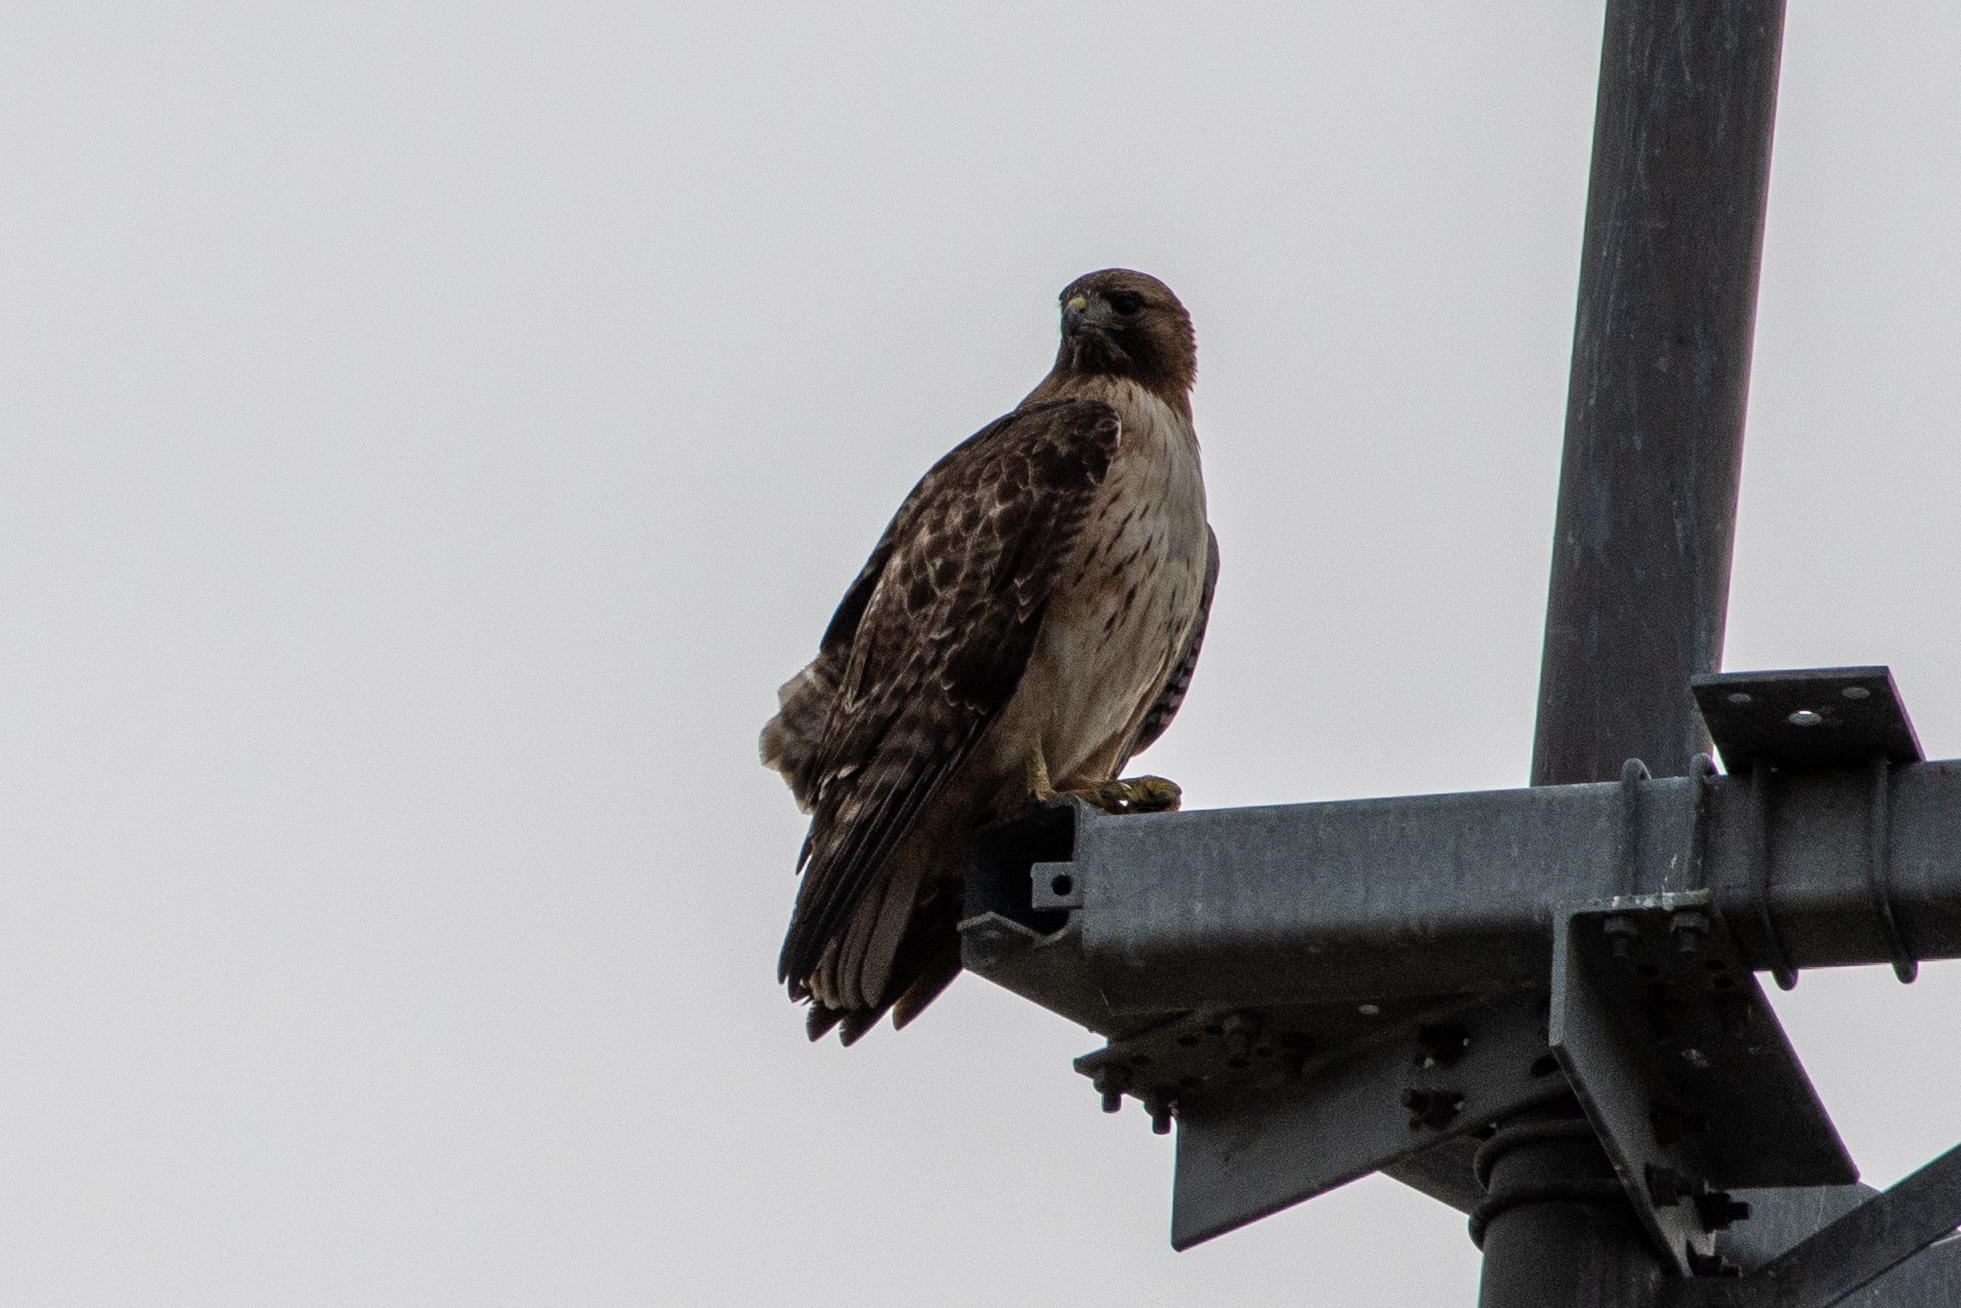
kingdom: Animalia
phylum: Chordata
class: Aves
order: Accipitriformes
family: Accipitridae
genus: Buteo
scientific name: Buteo jamaicensis
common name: Red-tailed hawk
